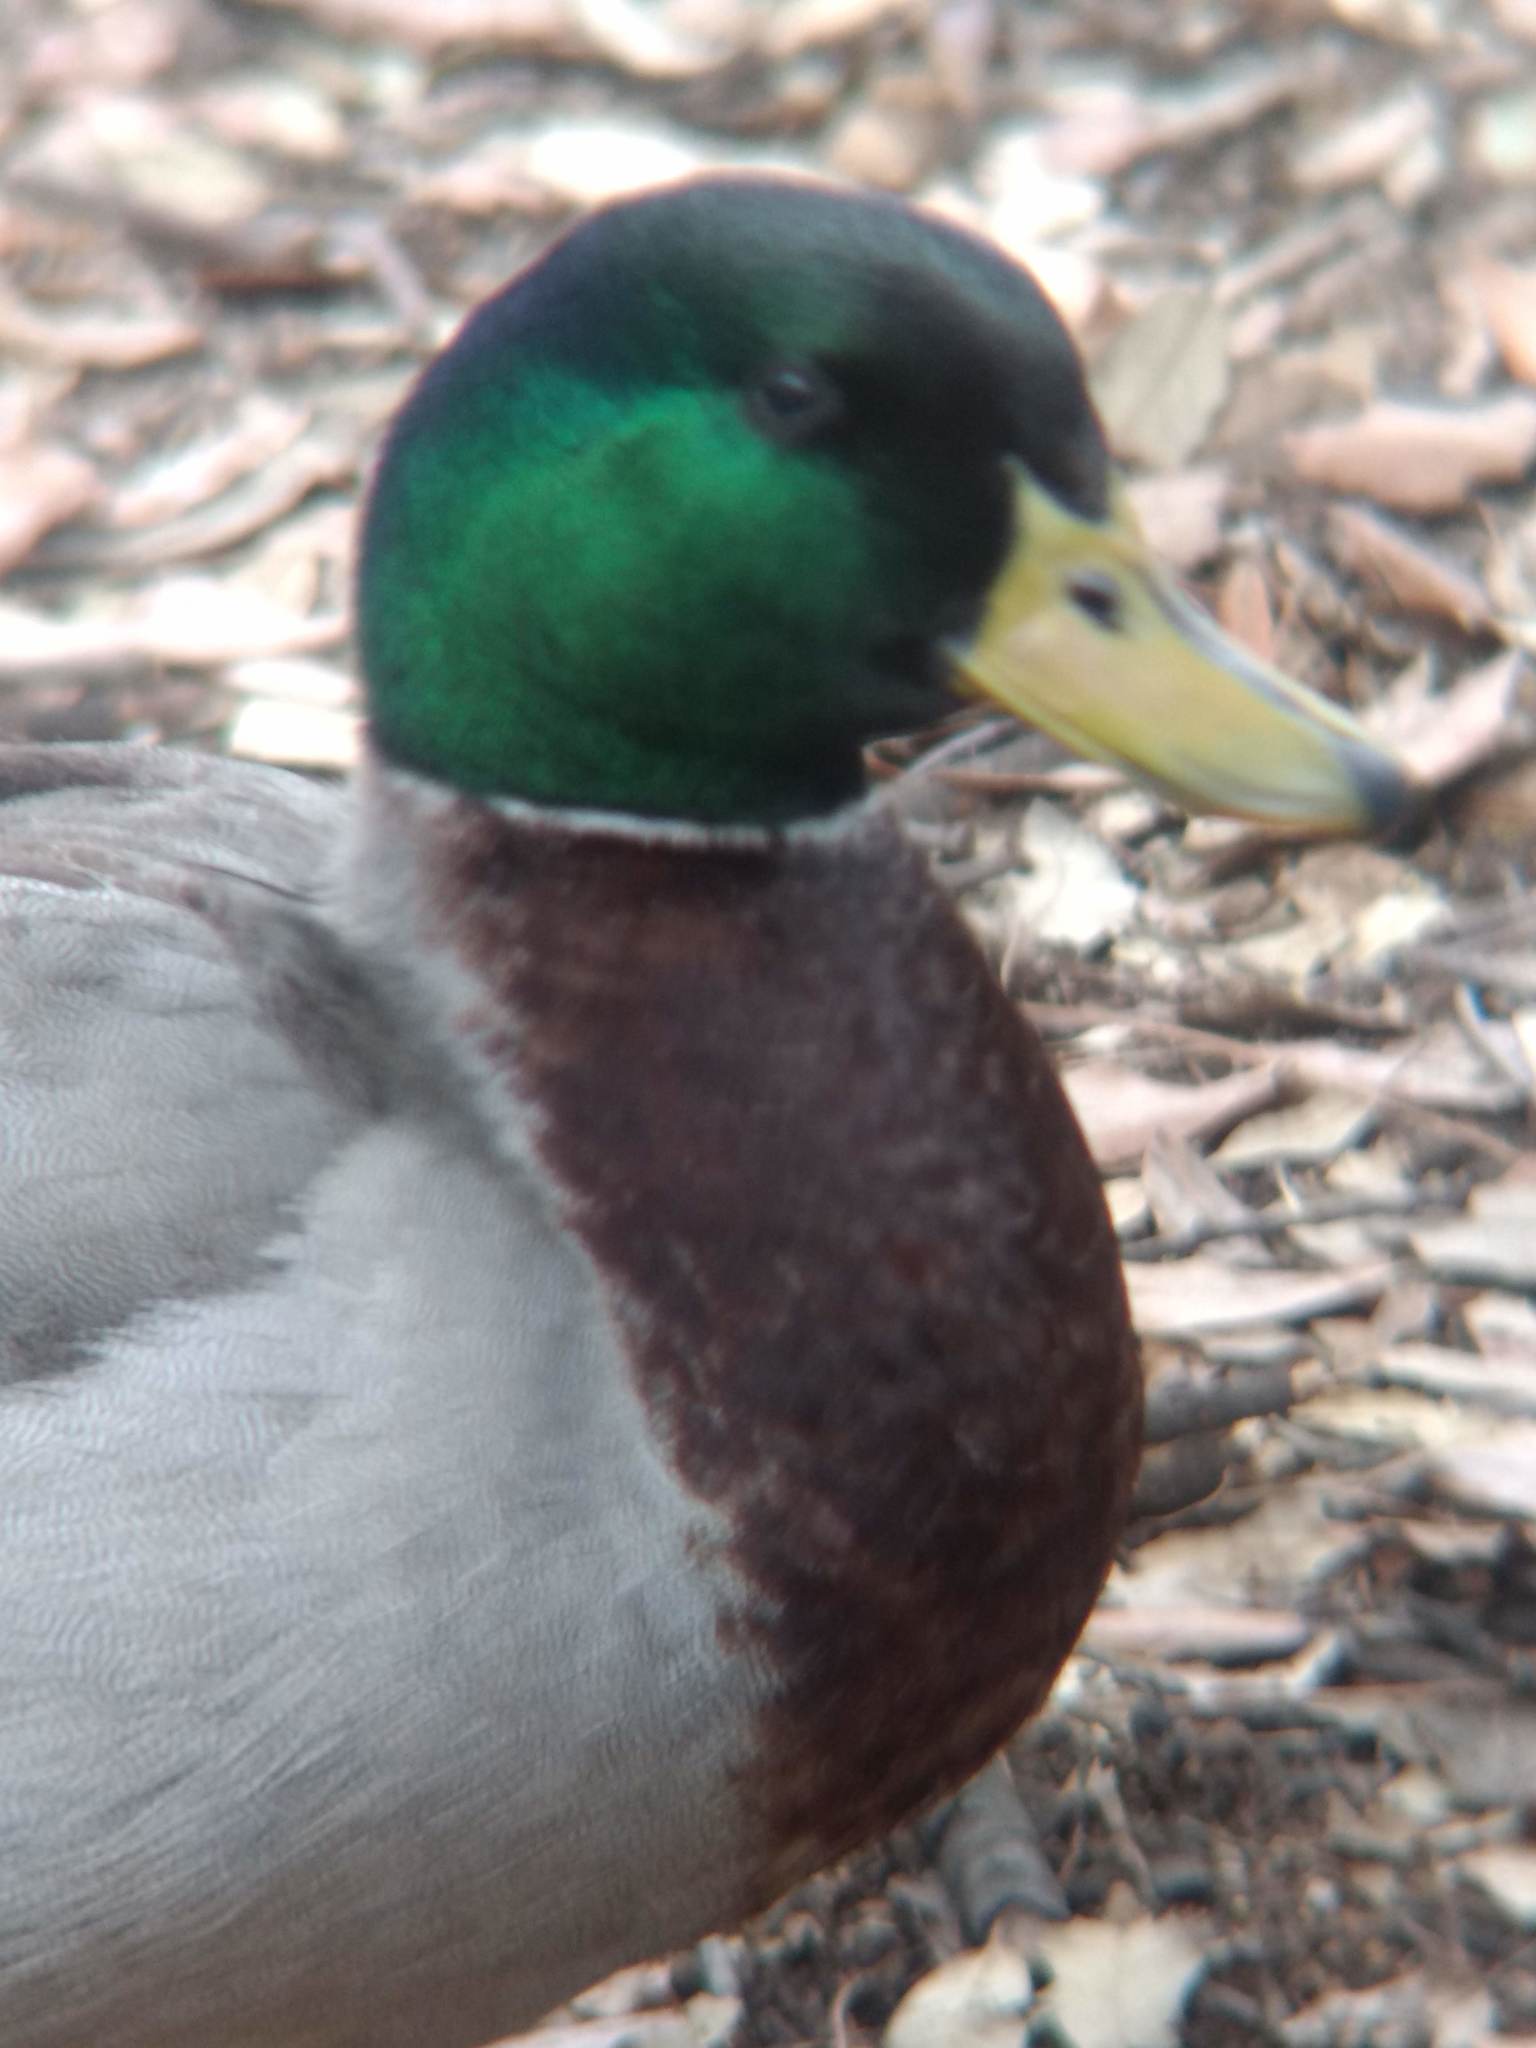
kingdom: Animalia
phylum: Chordata
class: Aves
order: Anseriformes
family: Anatidae
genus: Anas
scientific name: Anas platyrhynchos
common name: Mallard
